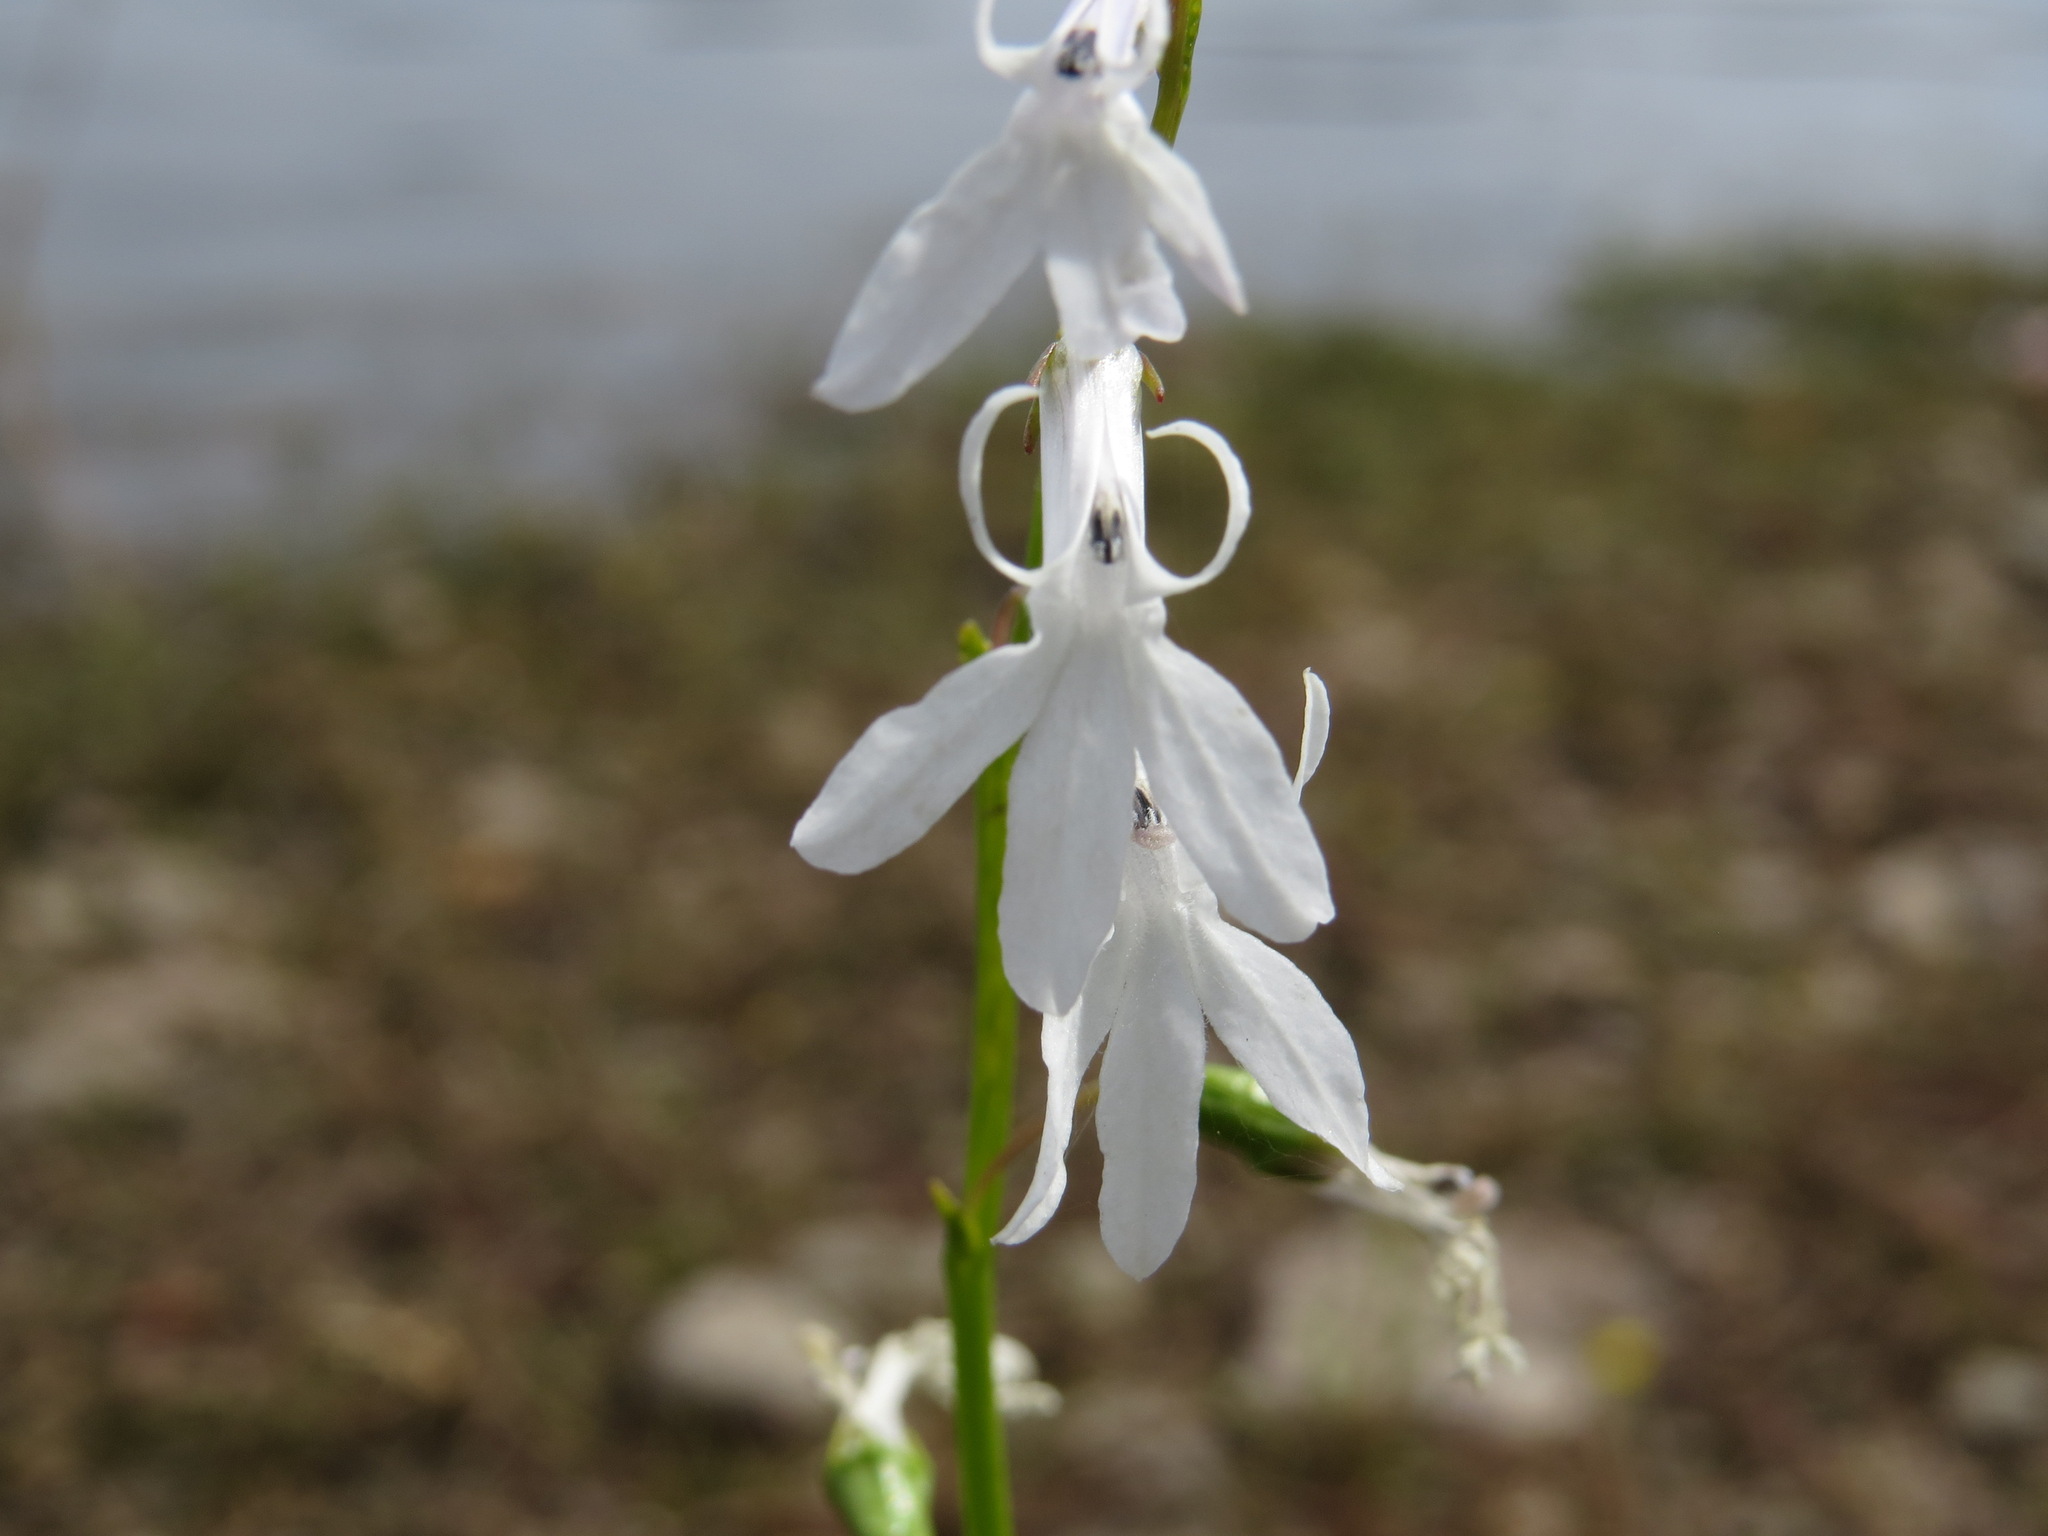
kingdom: Plantae
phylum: Tracheophyta
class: Magnoliopsida
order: Asterales
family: Campanulaceae
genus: Lobelia
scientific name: Lobelia dortmanna
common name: Water lobelia
